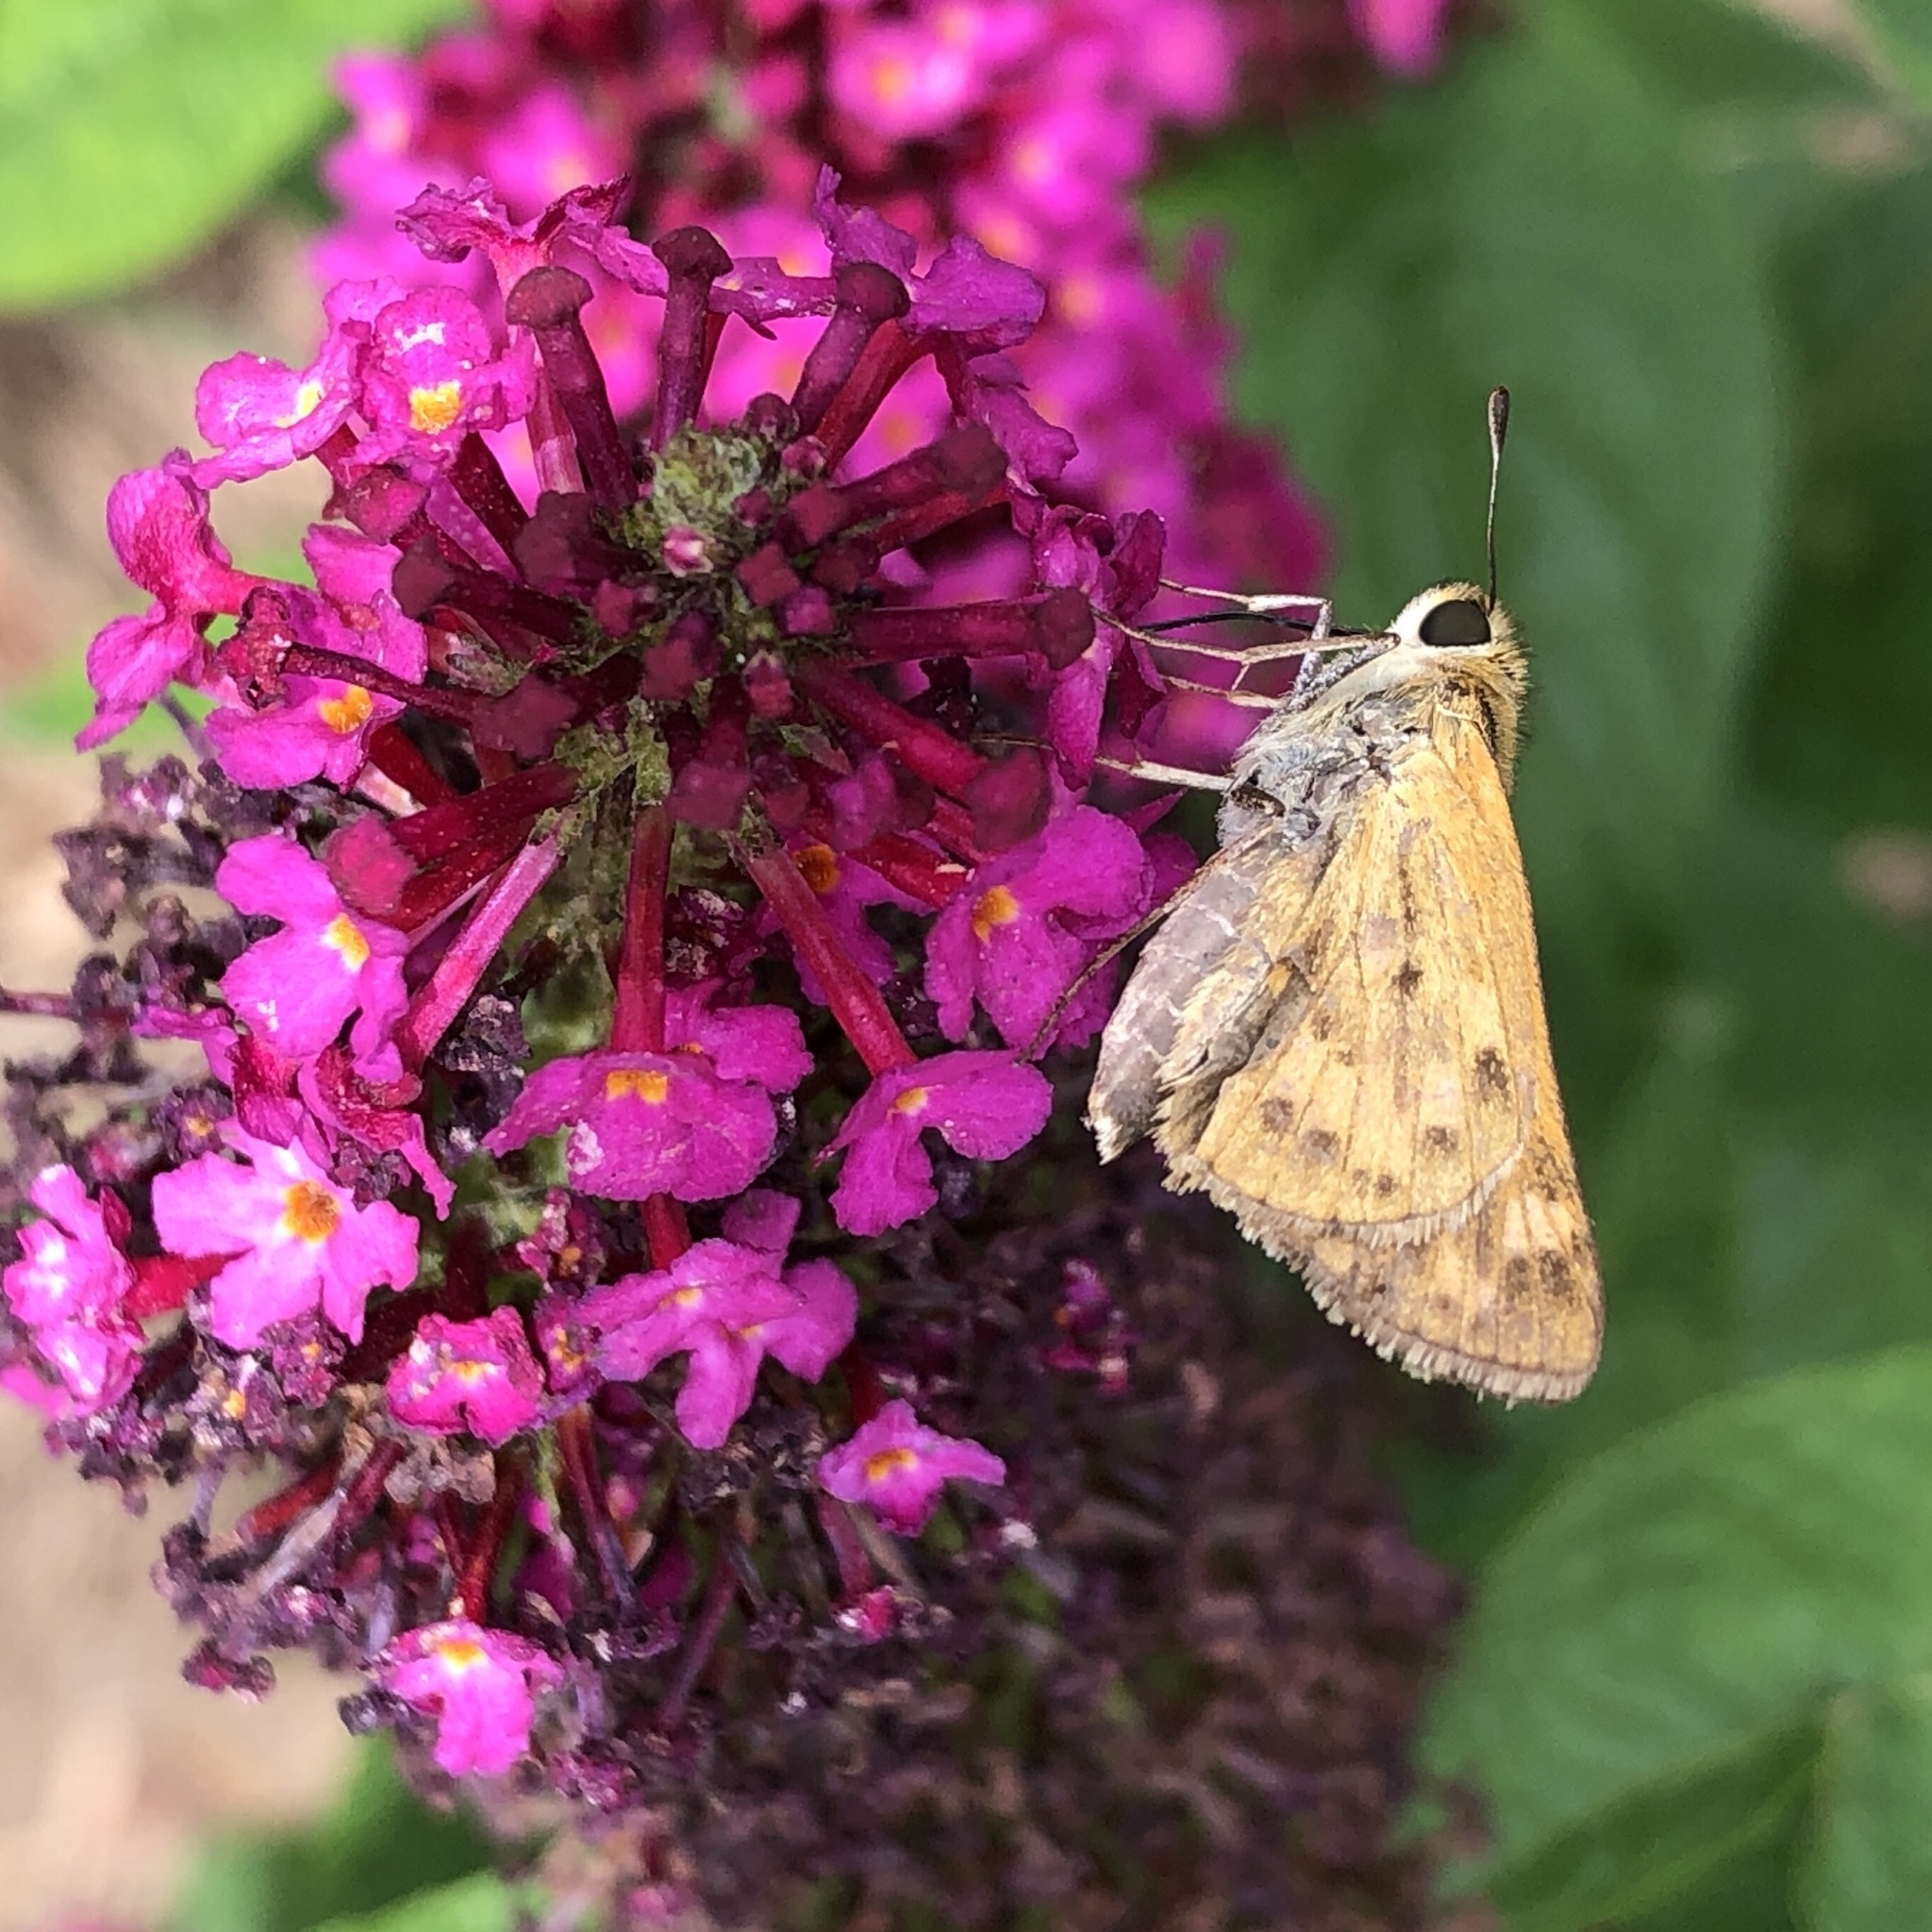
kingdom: Animalia
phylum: Arthropoda
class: Insecta
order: Lepidoptera
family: Hesperiidae
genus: Hylephila
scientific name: Hylephila phyleus
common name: Fiery skipper
